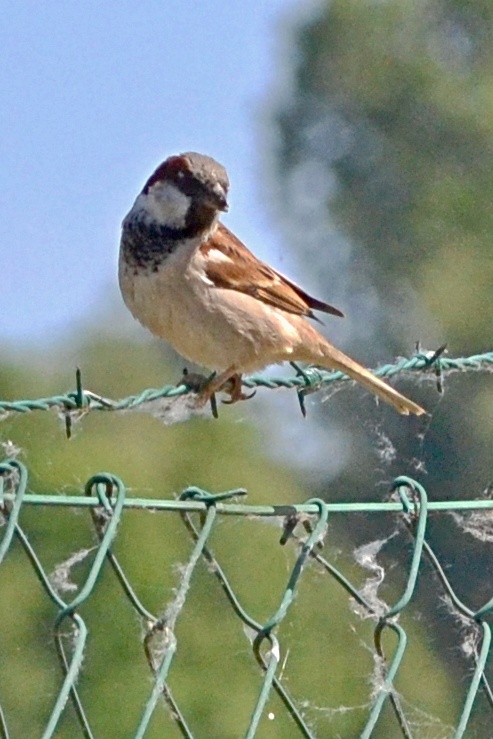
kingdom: Animalia
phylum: Chordata
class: Aves
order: Passeriformes
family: Passeridae
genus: Passer
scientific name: Passer domesticus
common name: House sparrow
